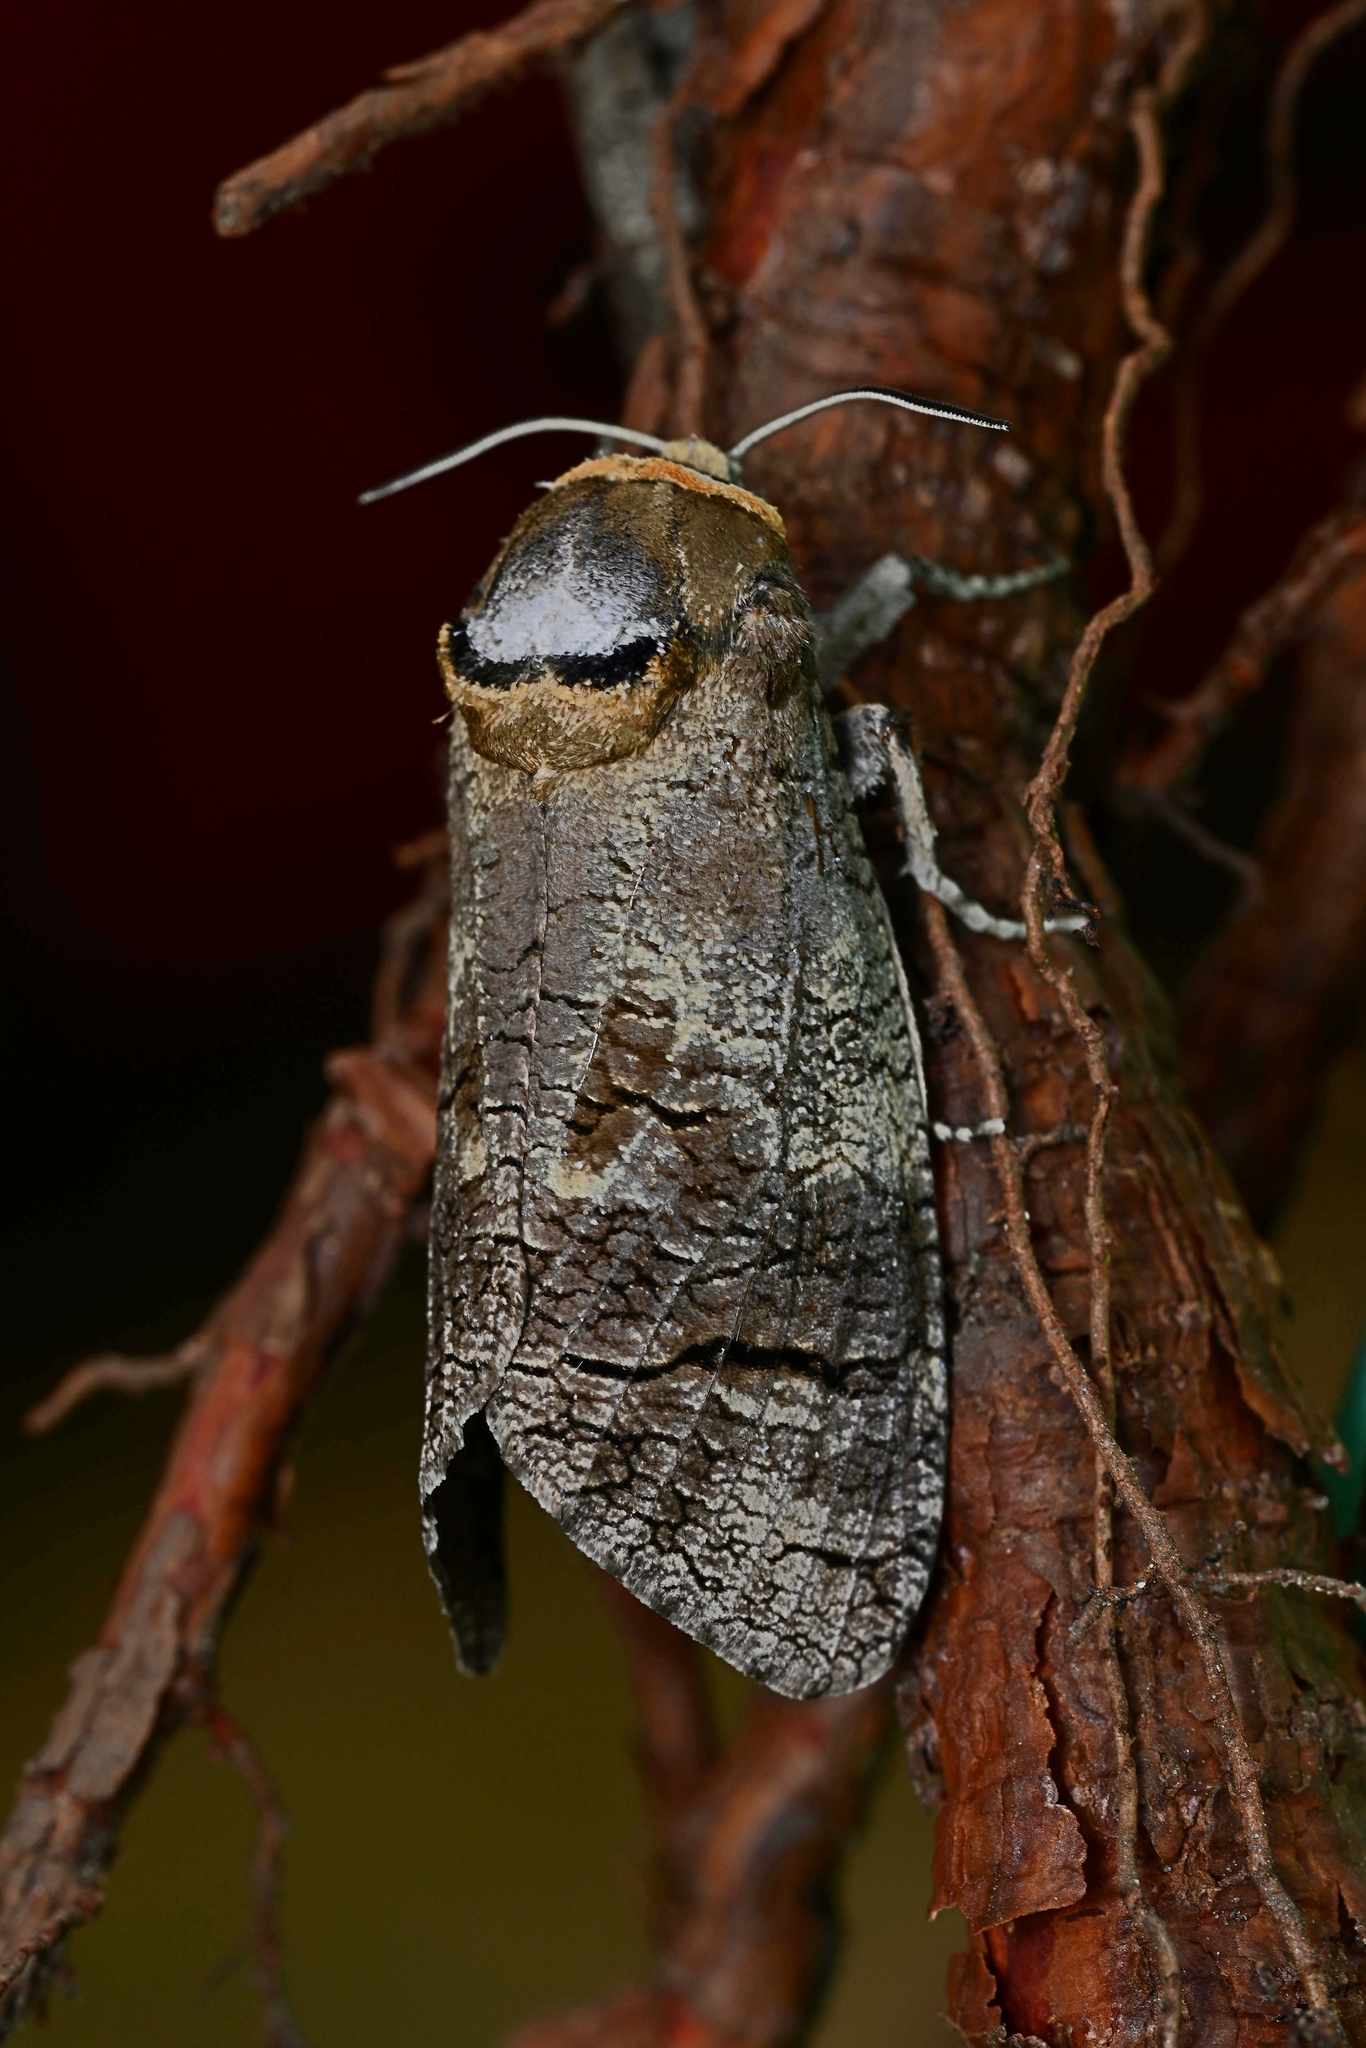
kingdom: Animalia
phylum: Arthropoda
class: Insecta
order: Lepidoptera
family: Cossidae
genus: Cossus
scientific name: Cossus cossus
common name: Goat moth
